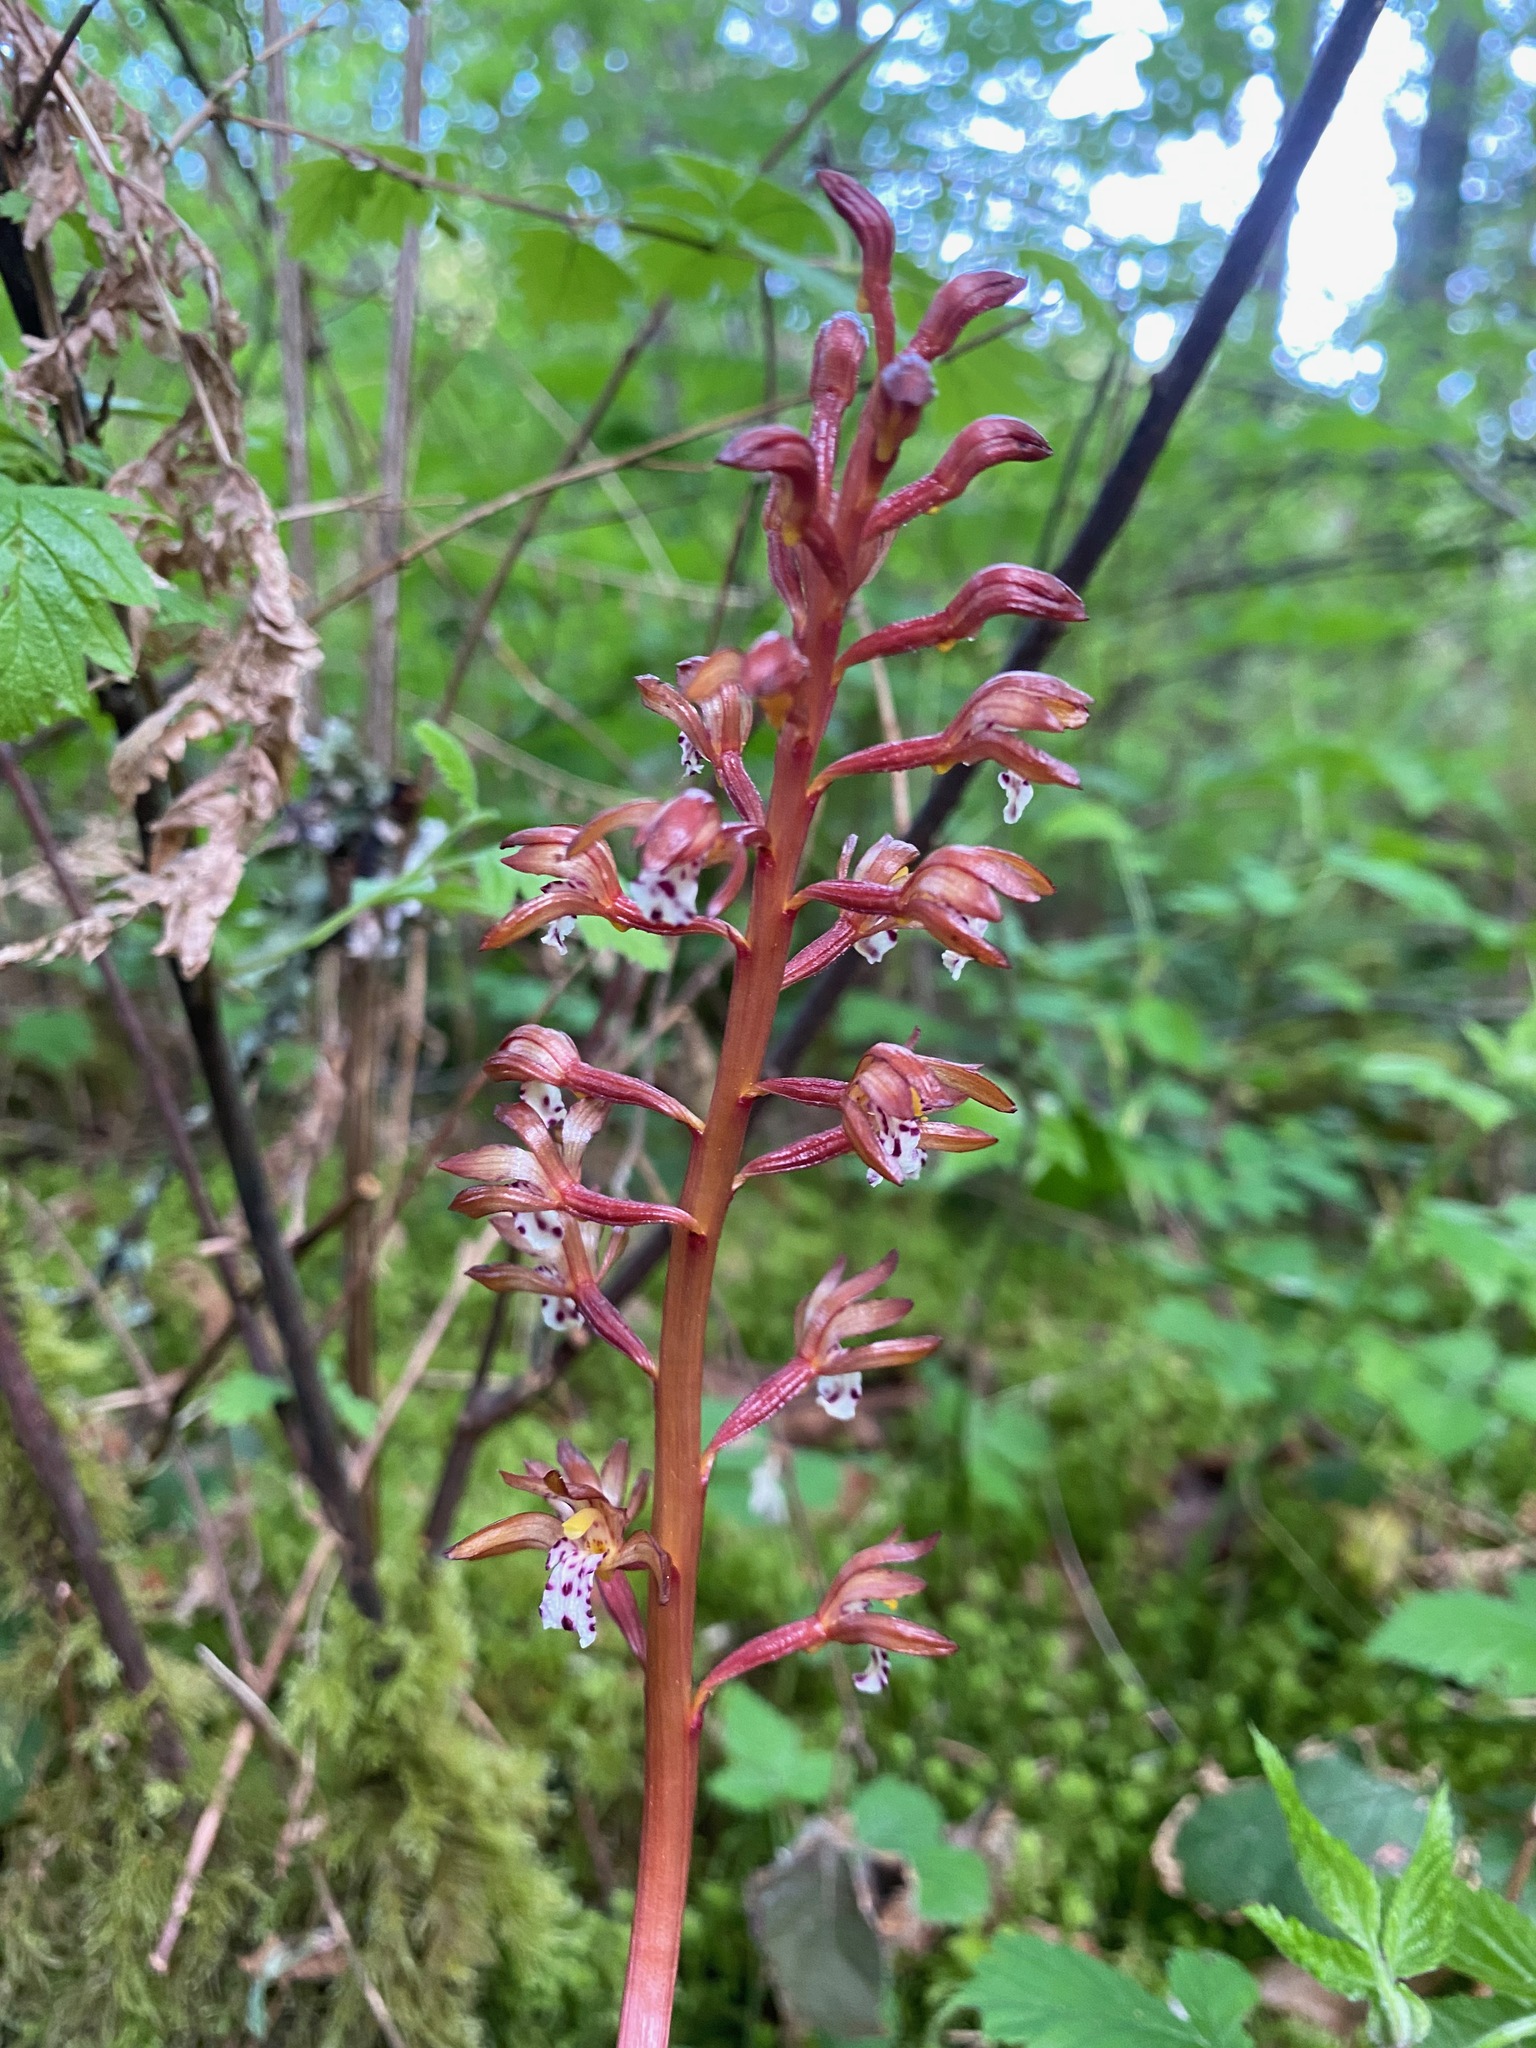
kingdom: Plantae
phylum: Tracheophyta
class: Liliopsida
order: Asparagales
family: Orchidaceae
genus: Corallorhiza
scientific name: Corallorhiza maculata
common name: Spotted coralroot
